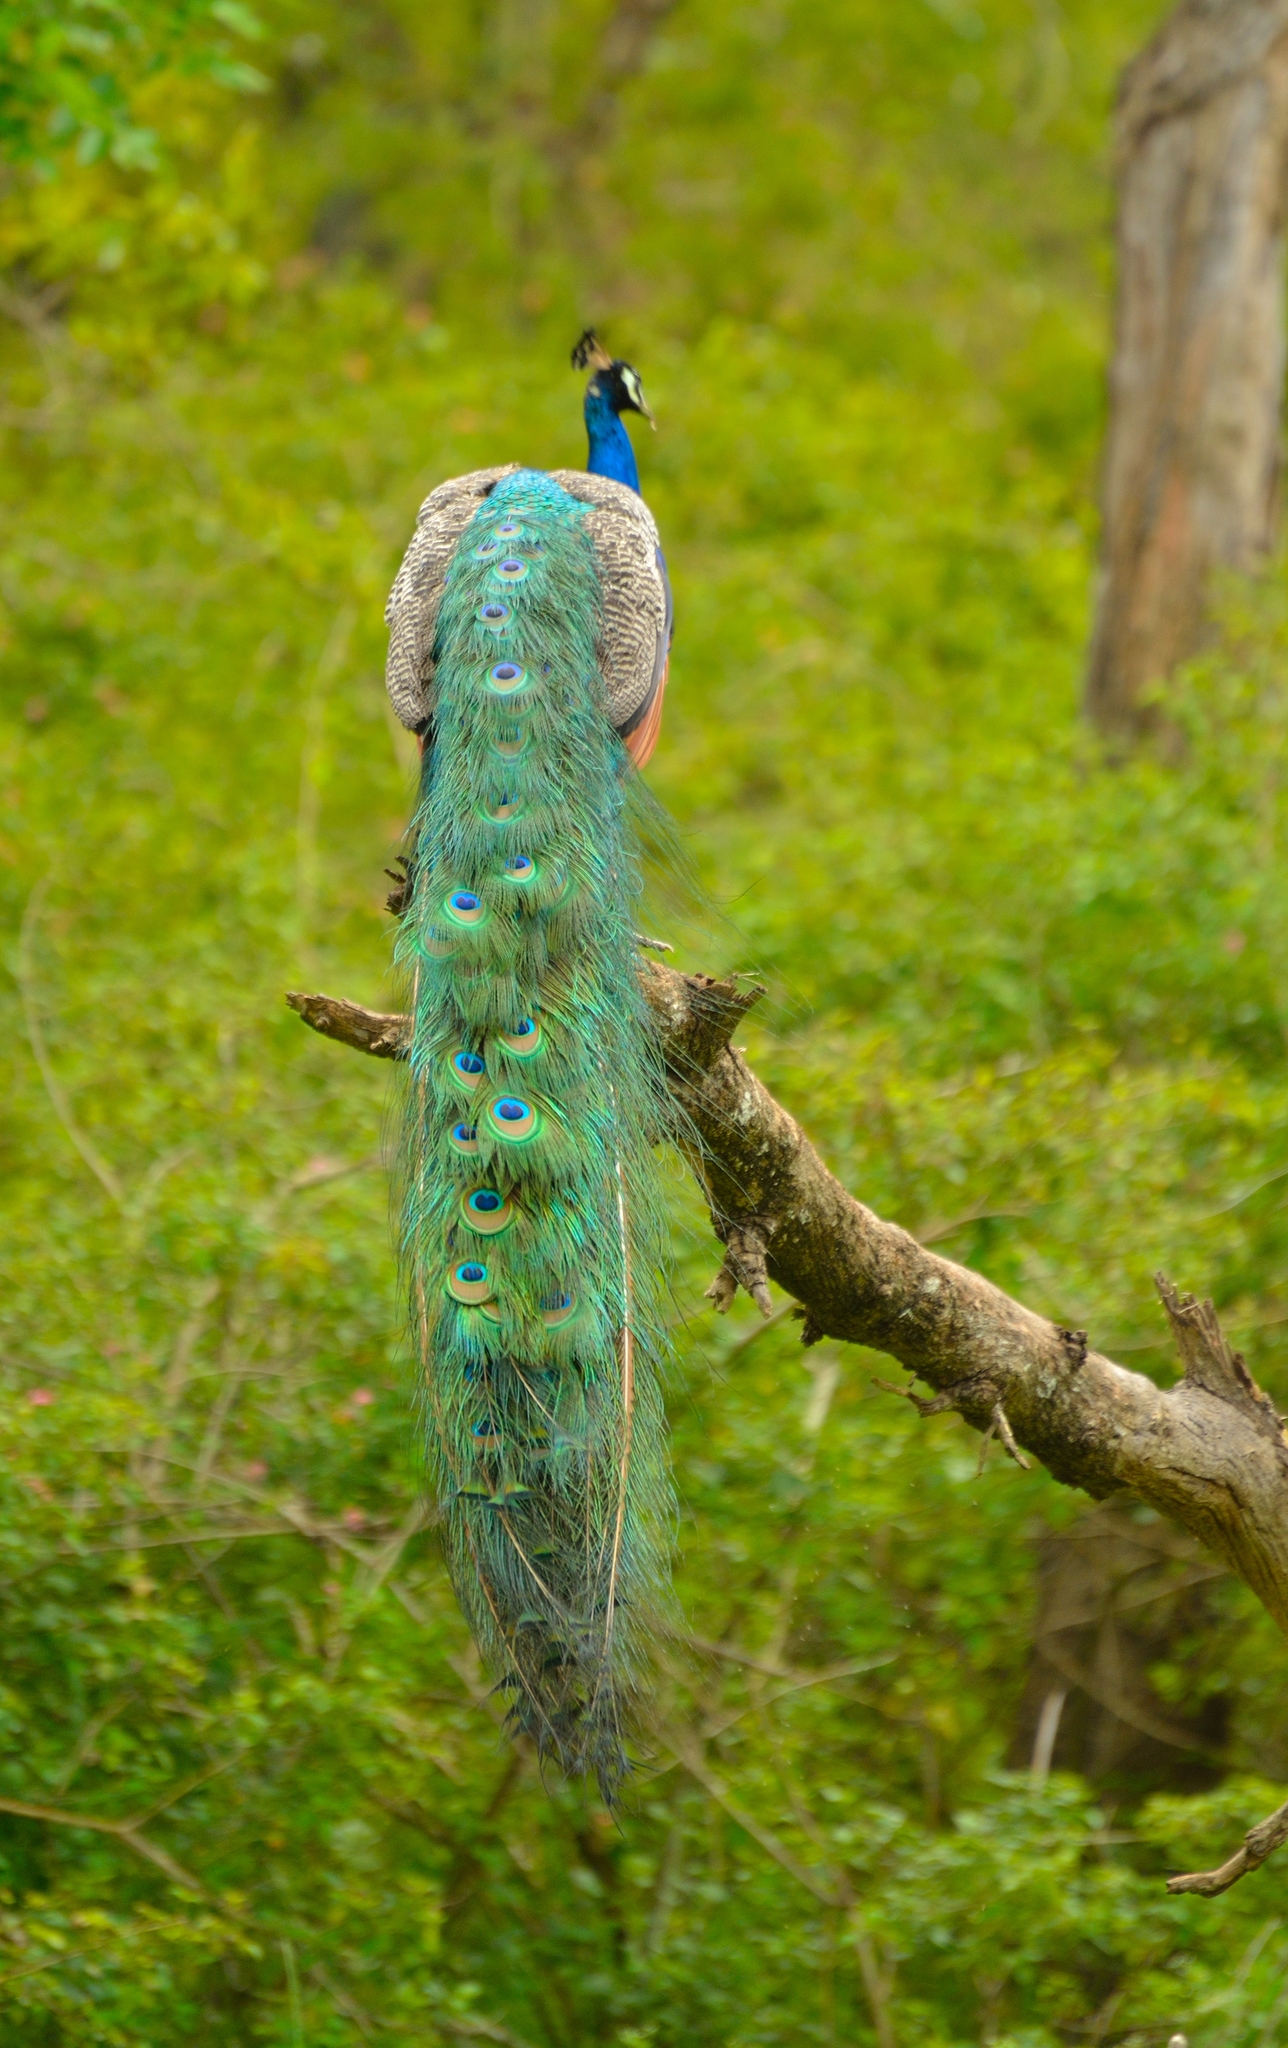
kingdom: Animalia
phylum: Chordata
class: Aves
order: Galliformes
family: Phasianidae
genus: Pavo
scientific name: Pavo cristatus
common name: Indian peafowl
